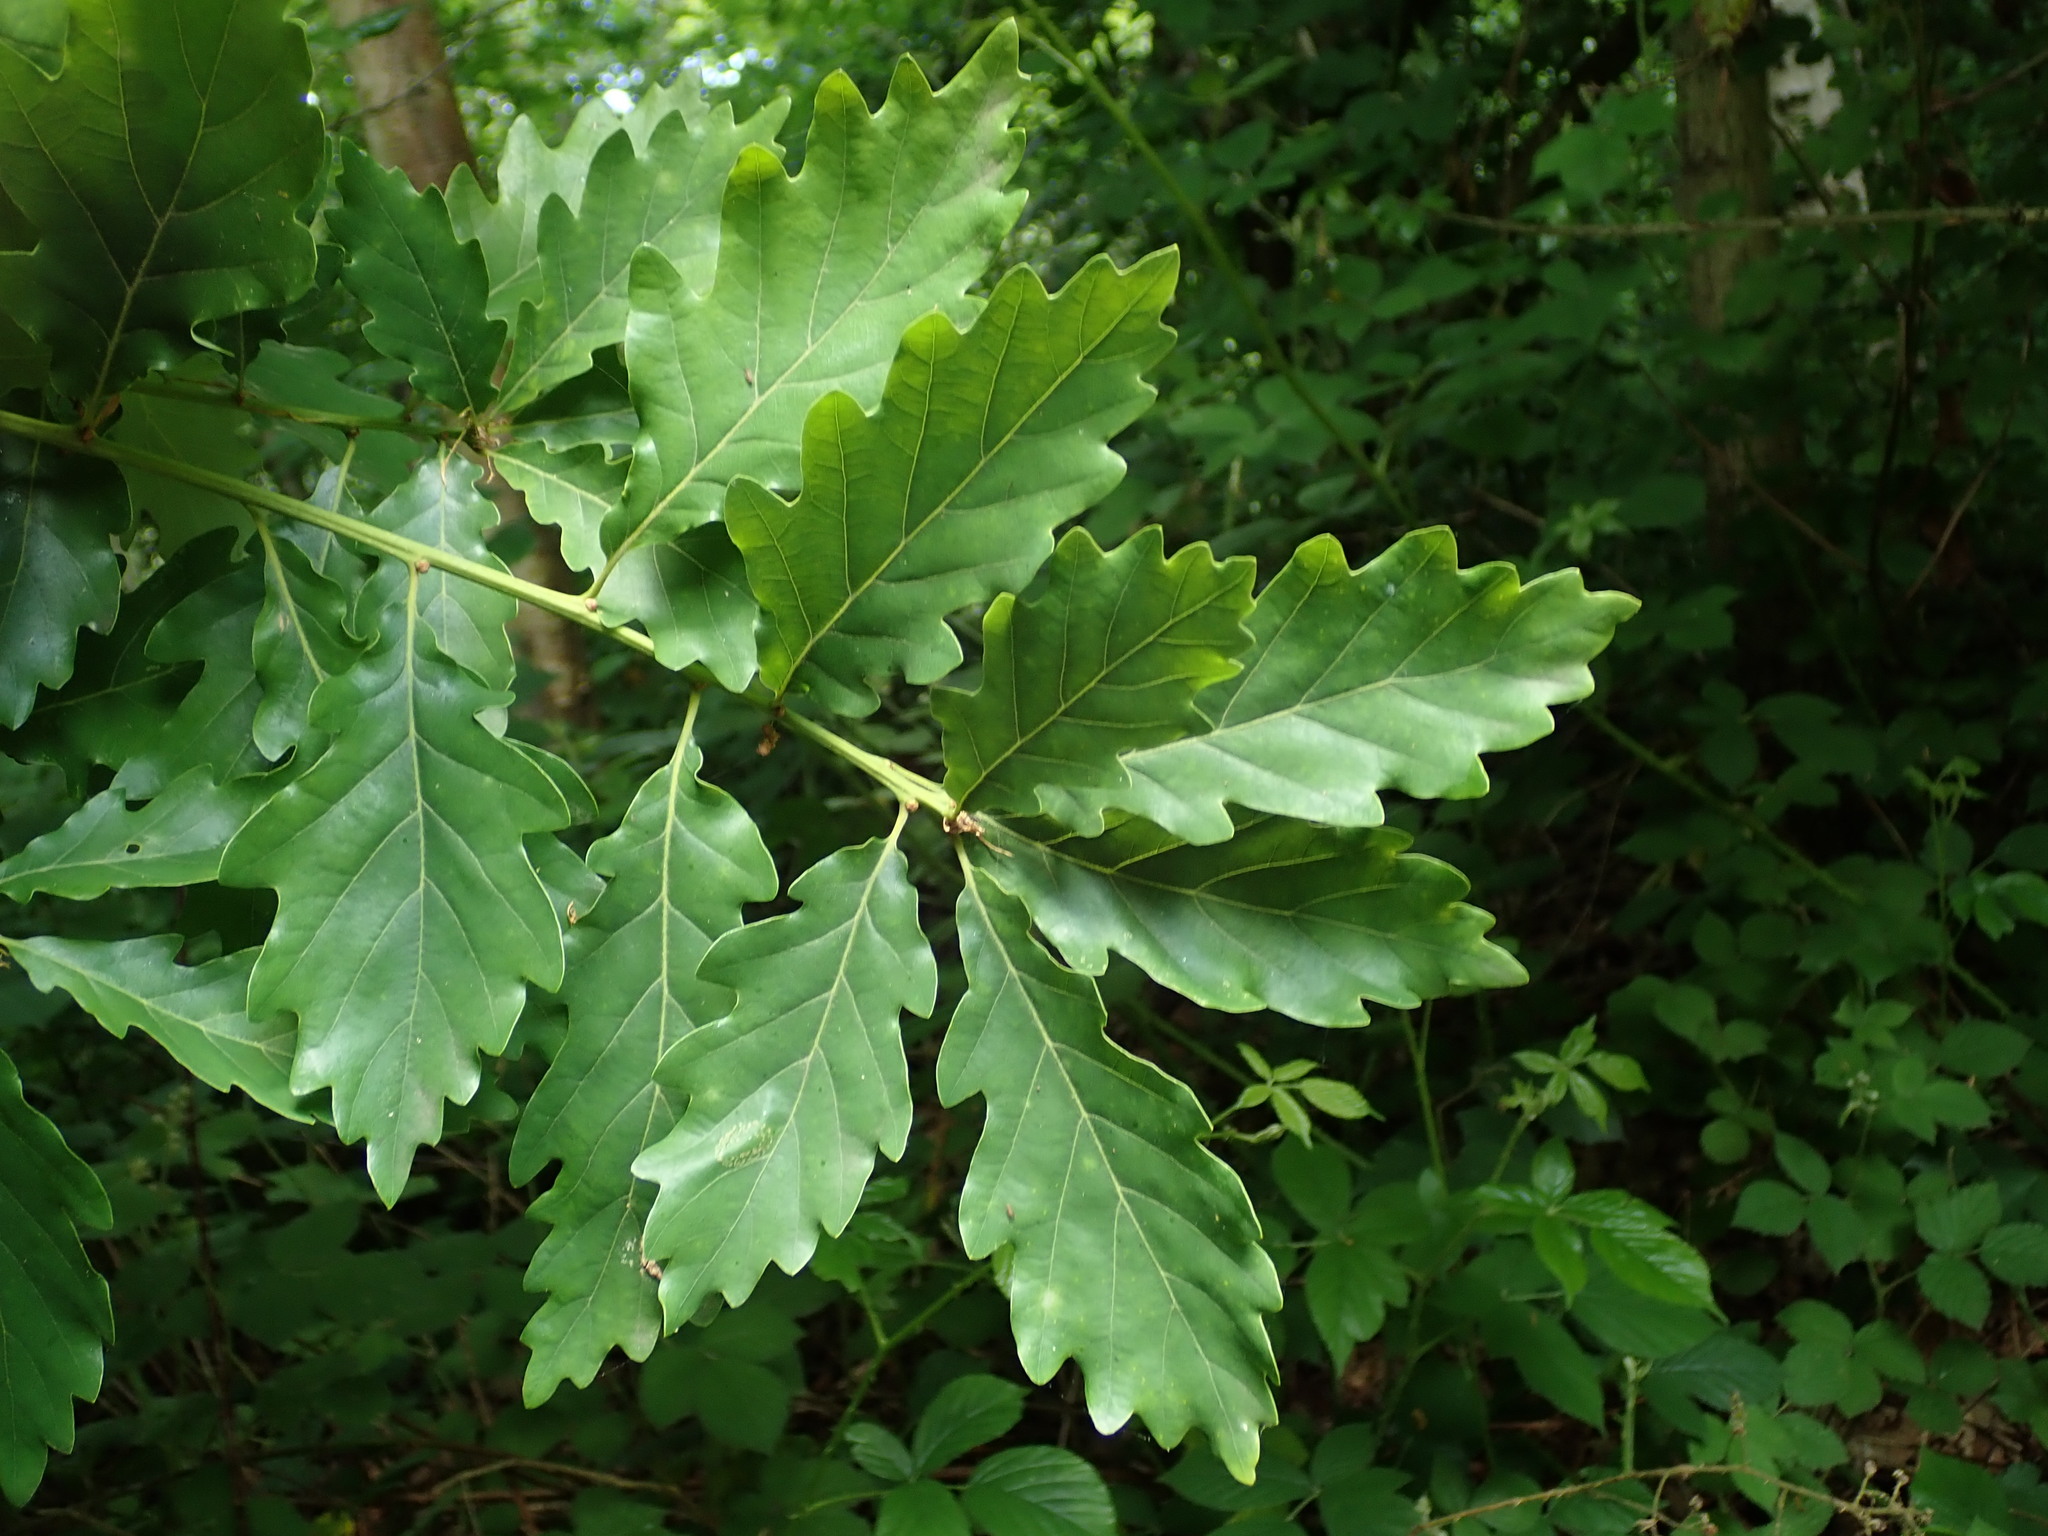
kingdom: Plantae
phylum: Tracheophyta
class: Magnoliopsida
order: Fagales
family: Fagaceae
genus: Quercus
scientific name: Quercus petraea
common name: Sessile oak
